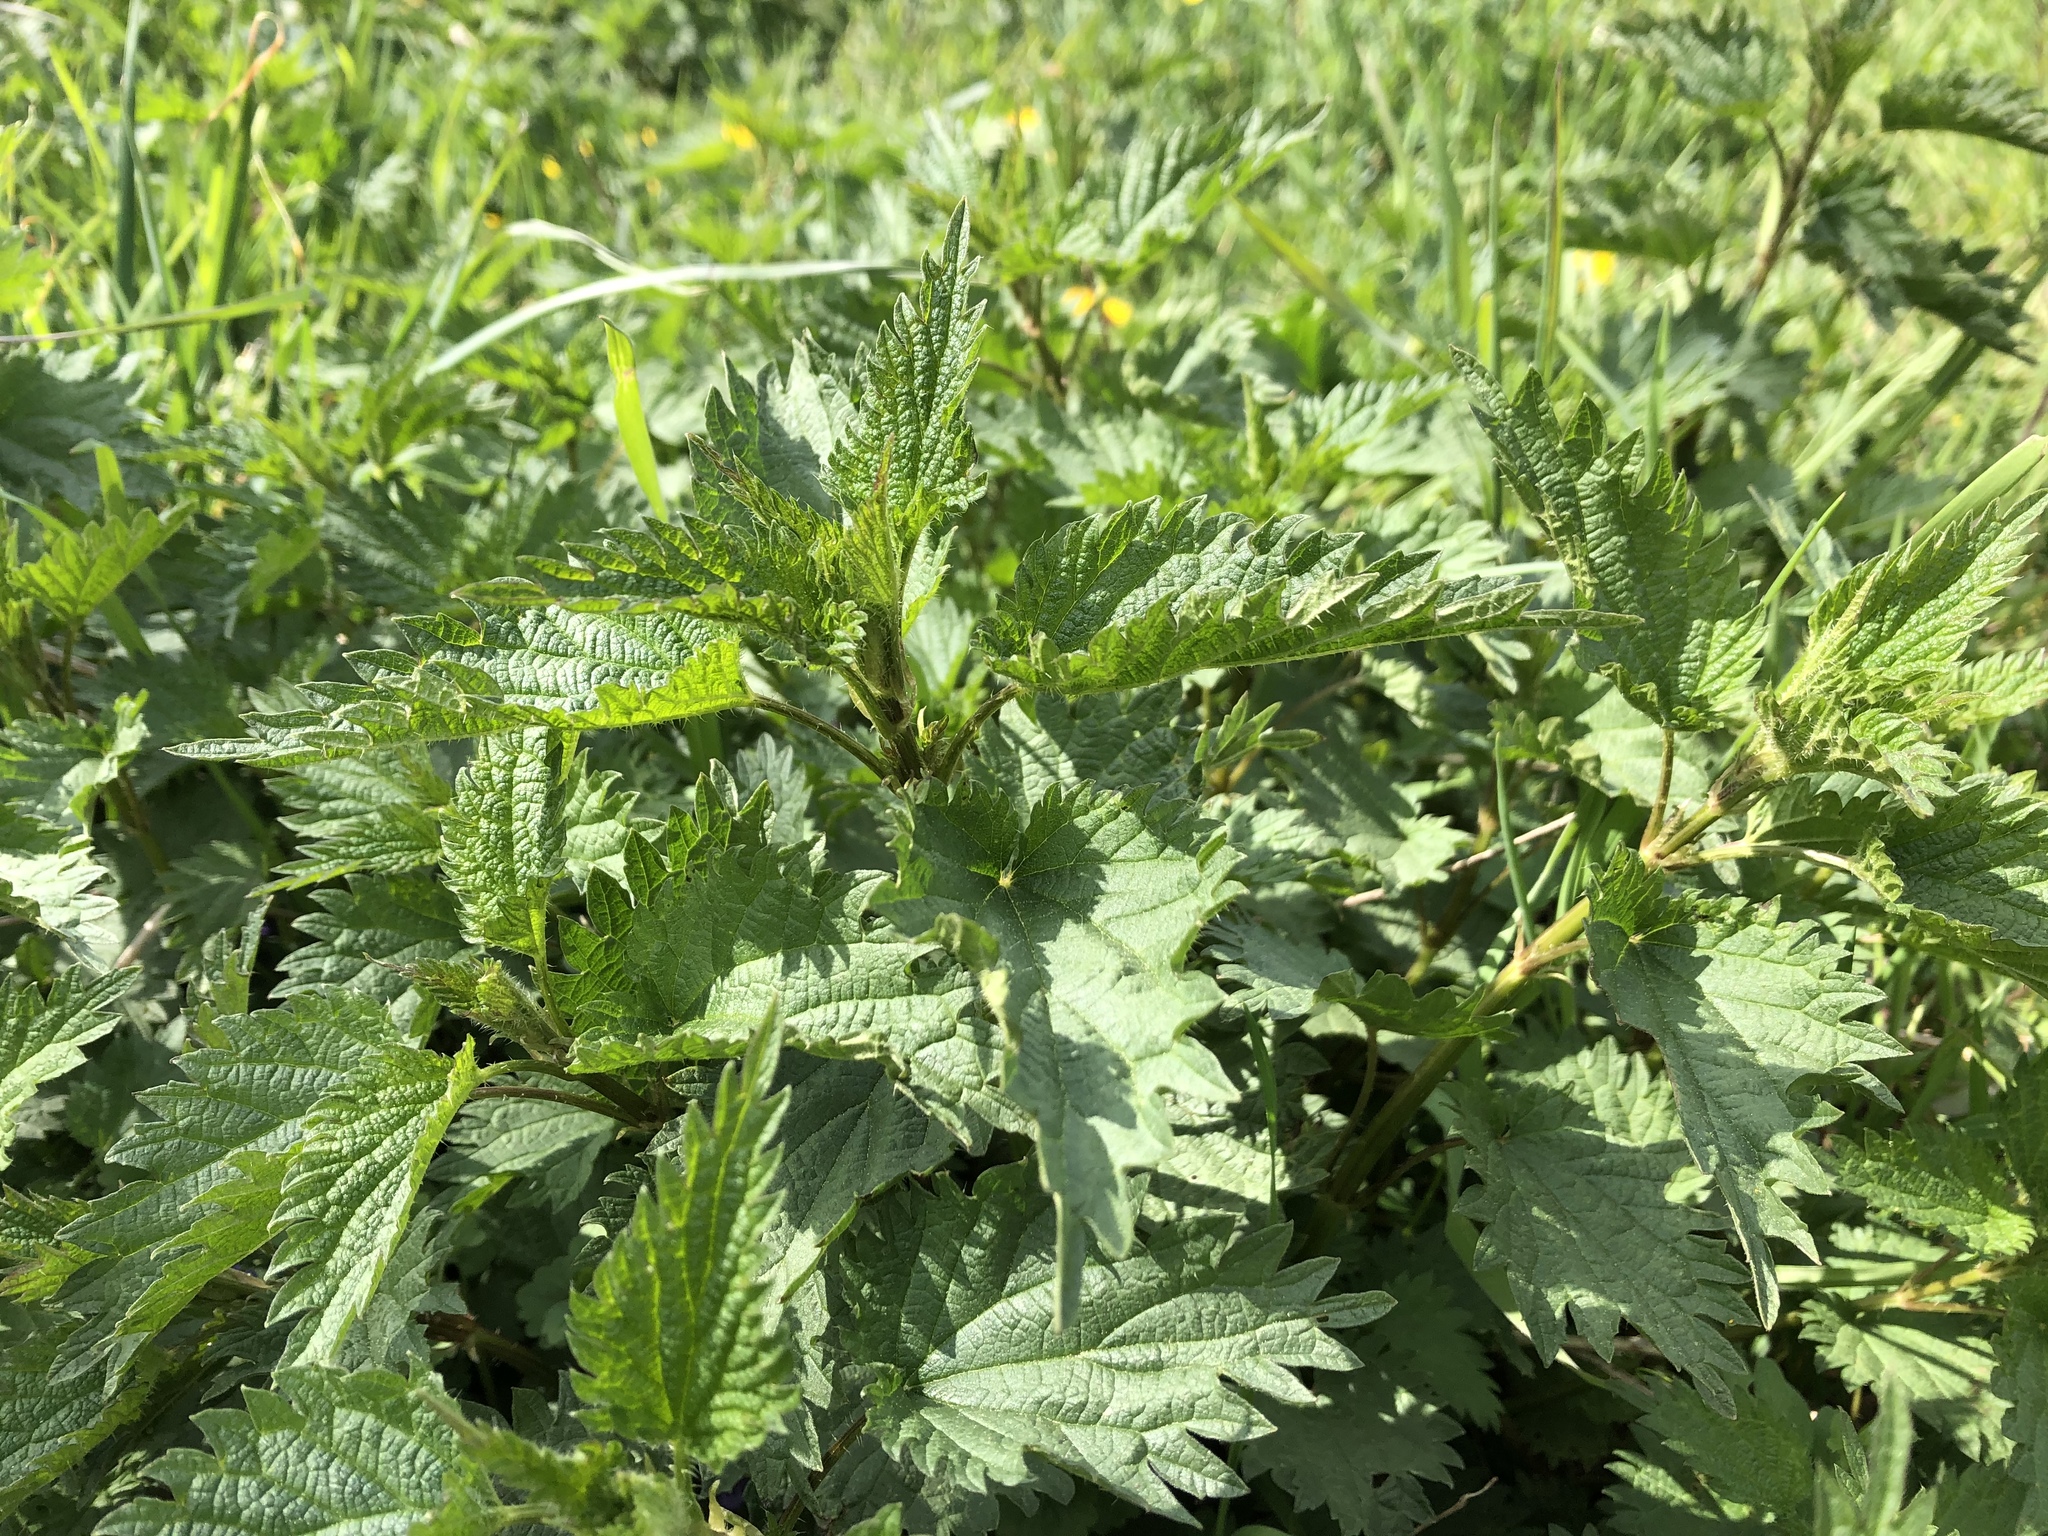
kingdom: Plantae
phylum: Tracheophyta
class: Magnoliopsida
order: Rosales
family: Urticaceae
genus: Urtica
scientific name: Urtica dioica
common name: Common nettle
